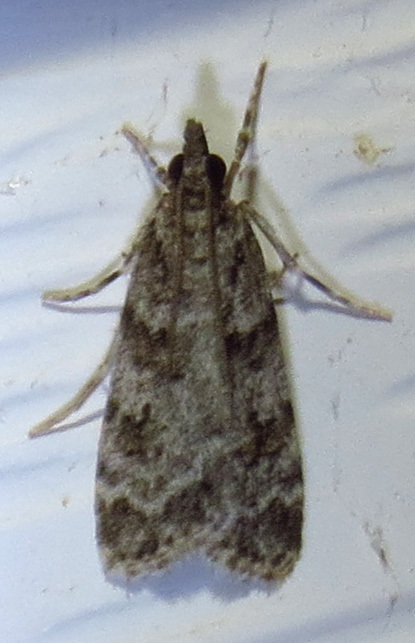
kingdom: Animalia
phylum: Arthropoda
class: Insecta
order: Lepidoptera
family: Crambidae
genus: Scoparia
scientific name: Scoparia biplagialis
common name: Double-striped scoparia moth
